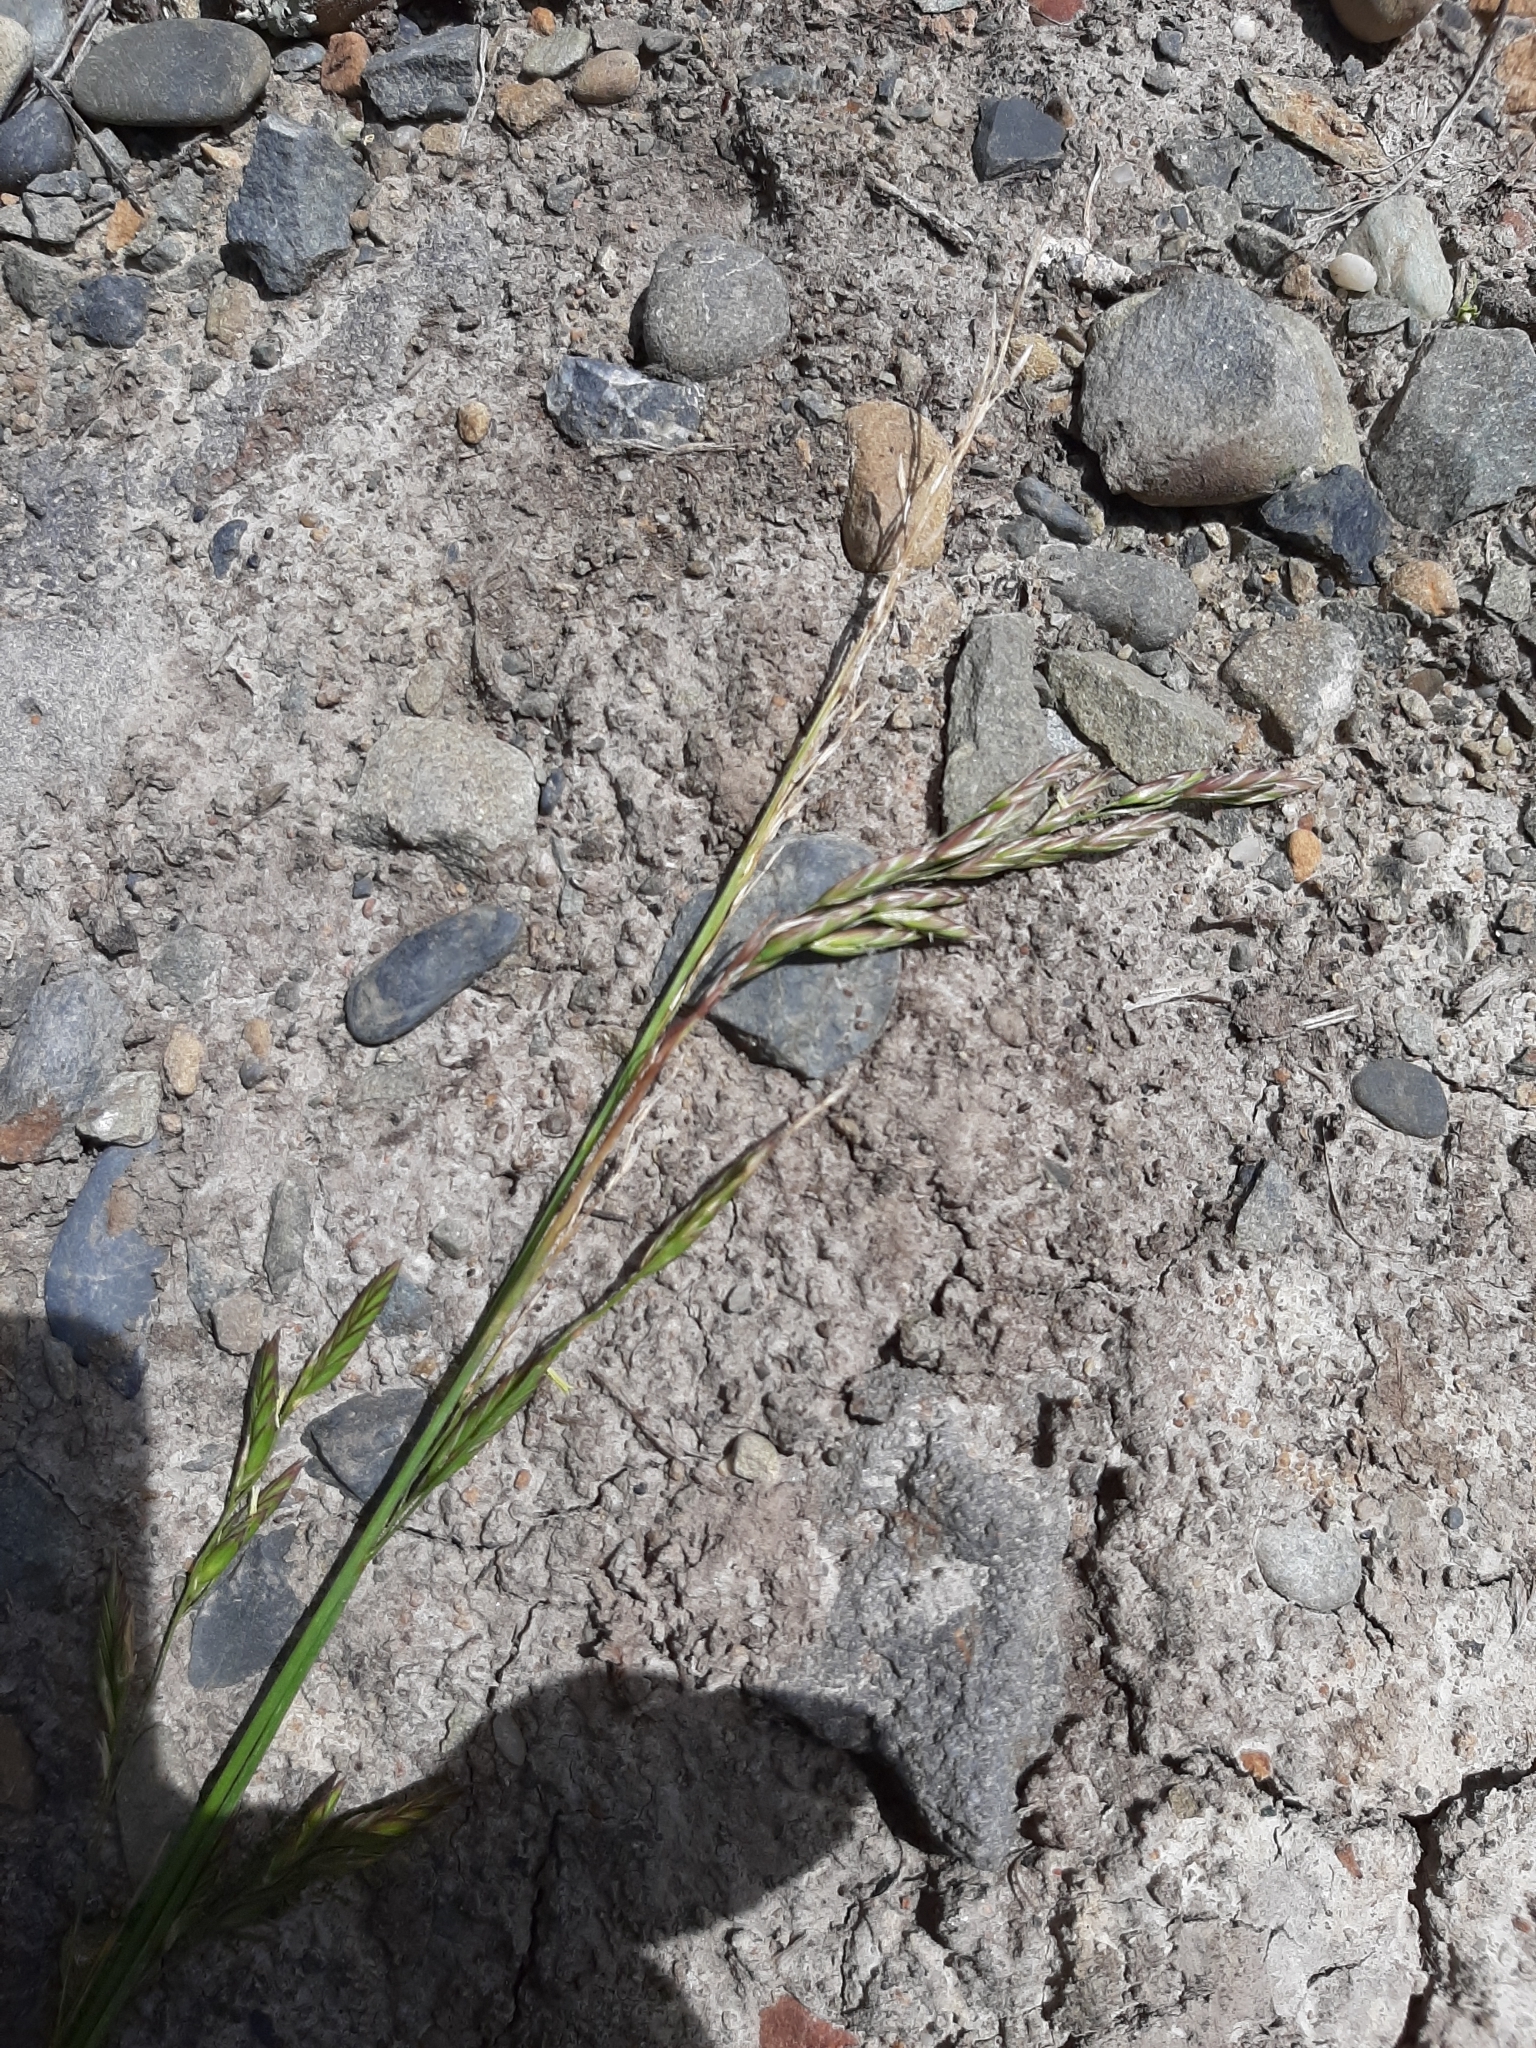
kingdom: Plantae
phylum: Tracheophyta
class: Liliopsida
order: Poales
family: Poaceae
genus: Lolium
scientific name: Lolium arundinaceum
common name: Reed fescue
